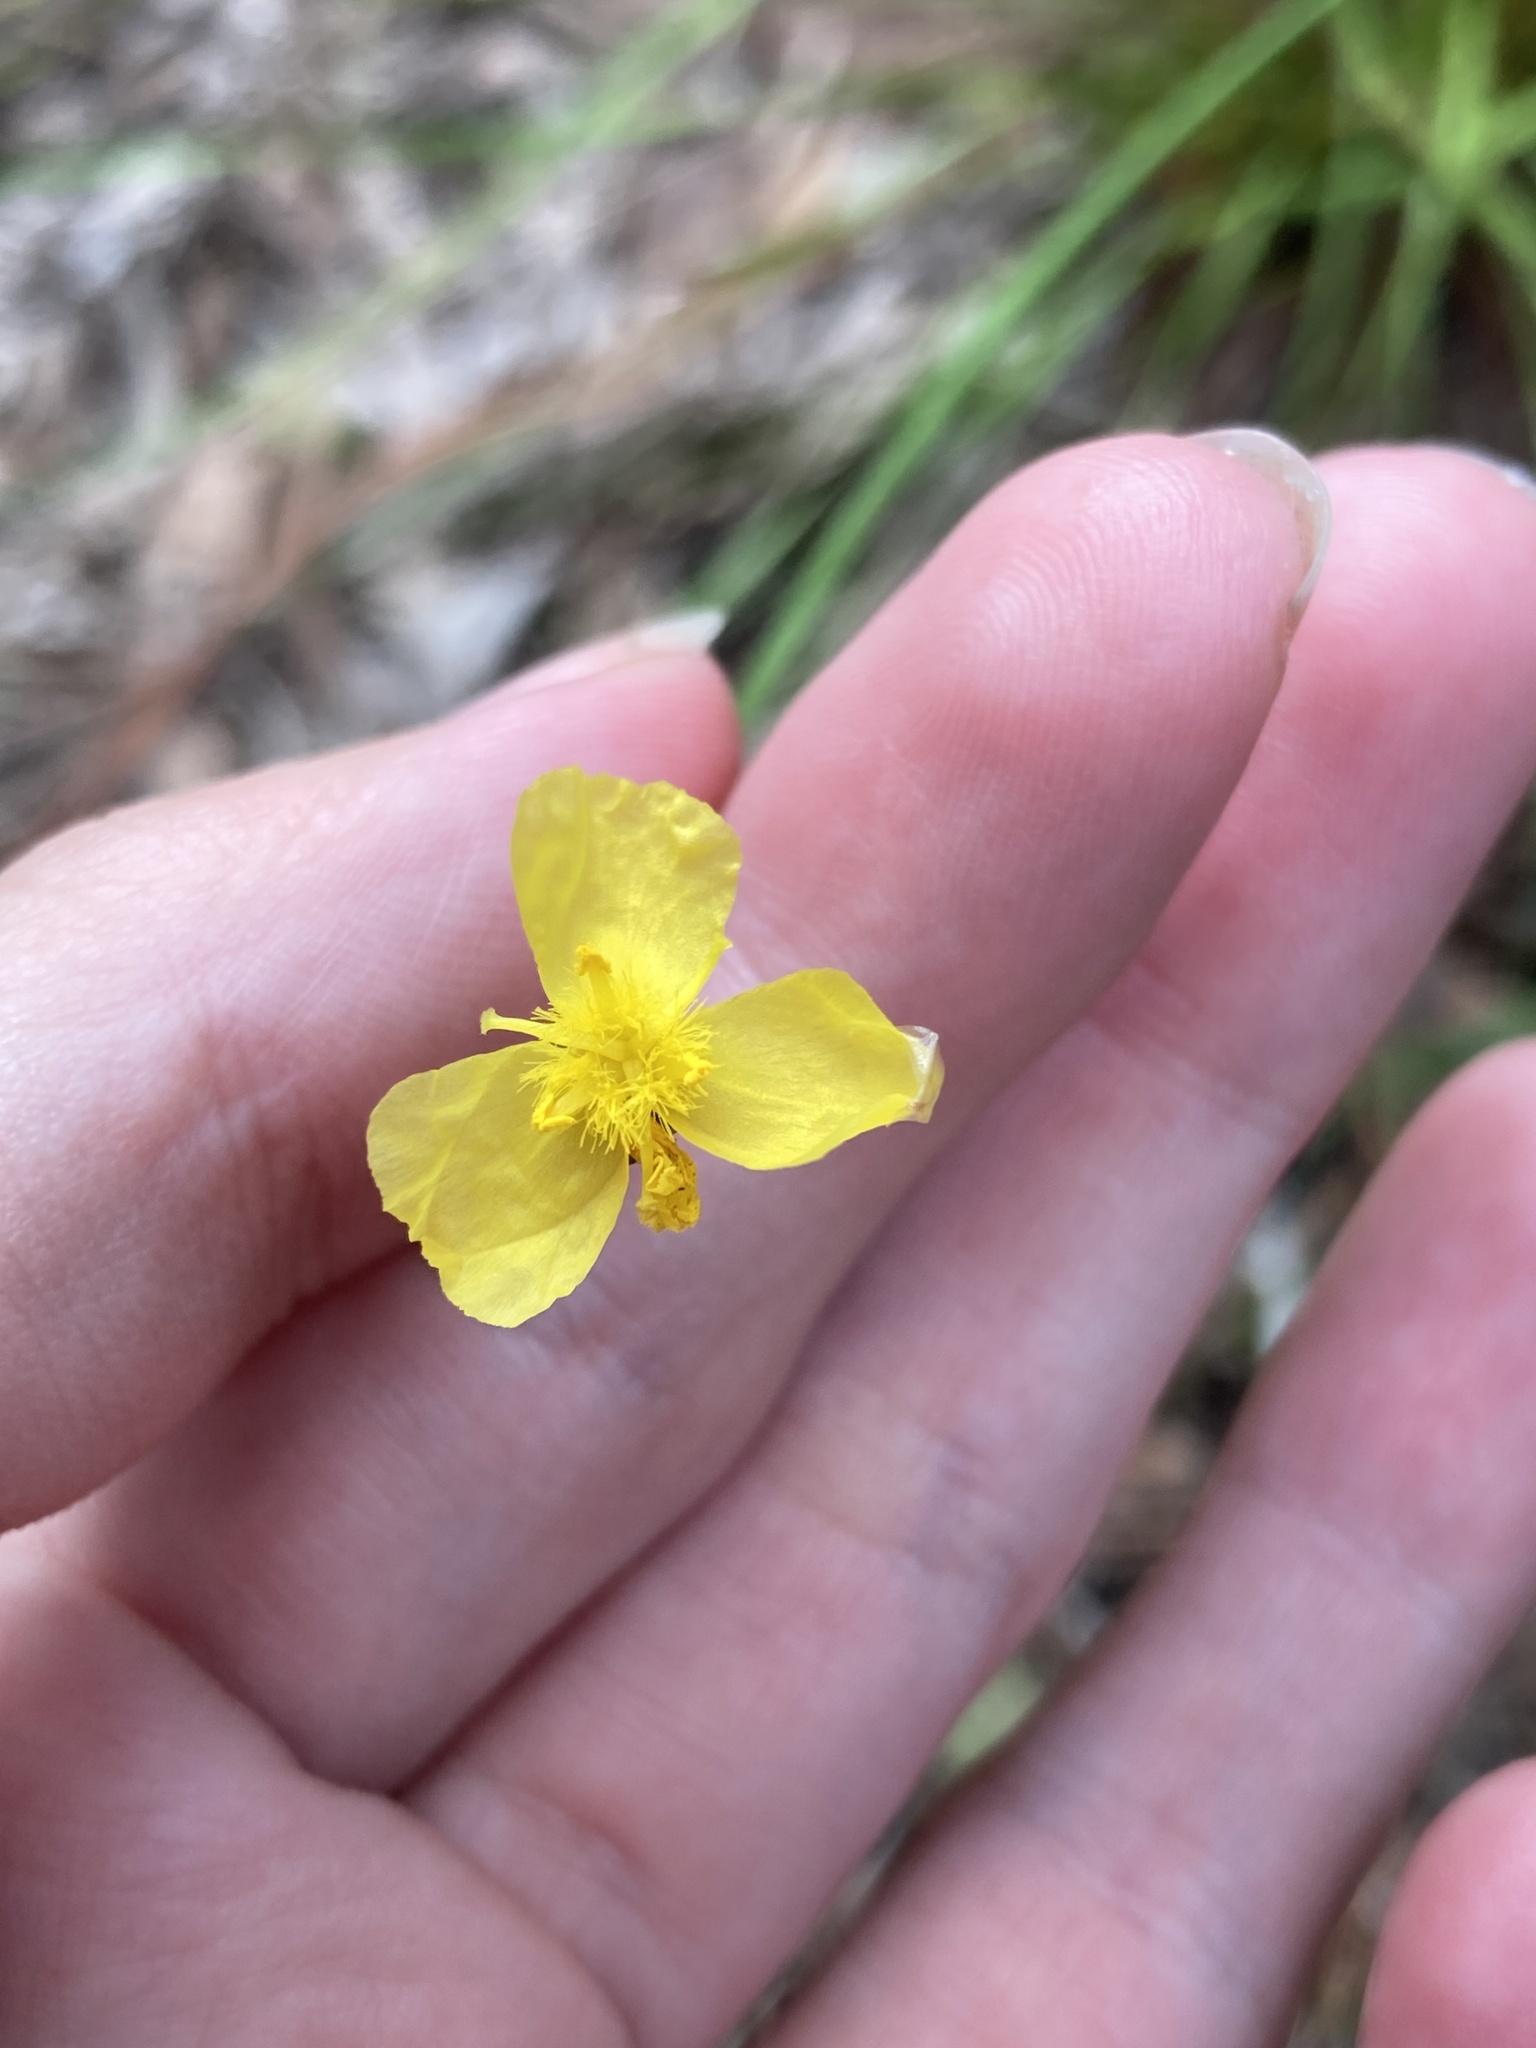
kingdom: Plantae
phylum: Tracheophyta
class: Liliopsida
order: Poales
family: Xyridaceae
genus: Xyris
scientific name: Xyris elliottii
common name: Elliot's yelloweyed grass
